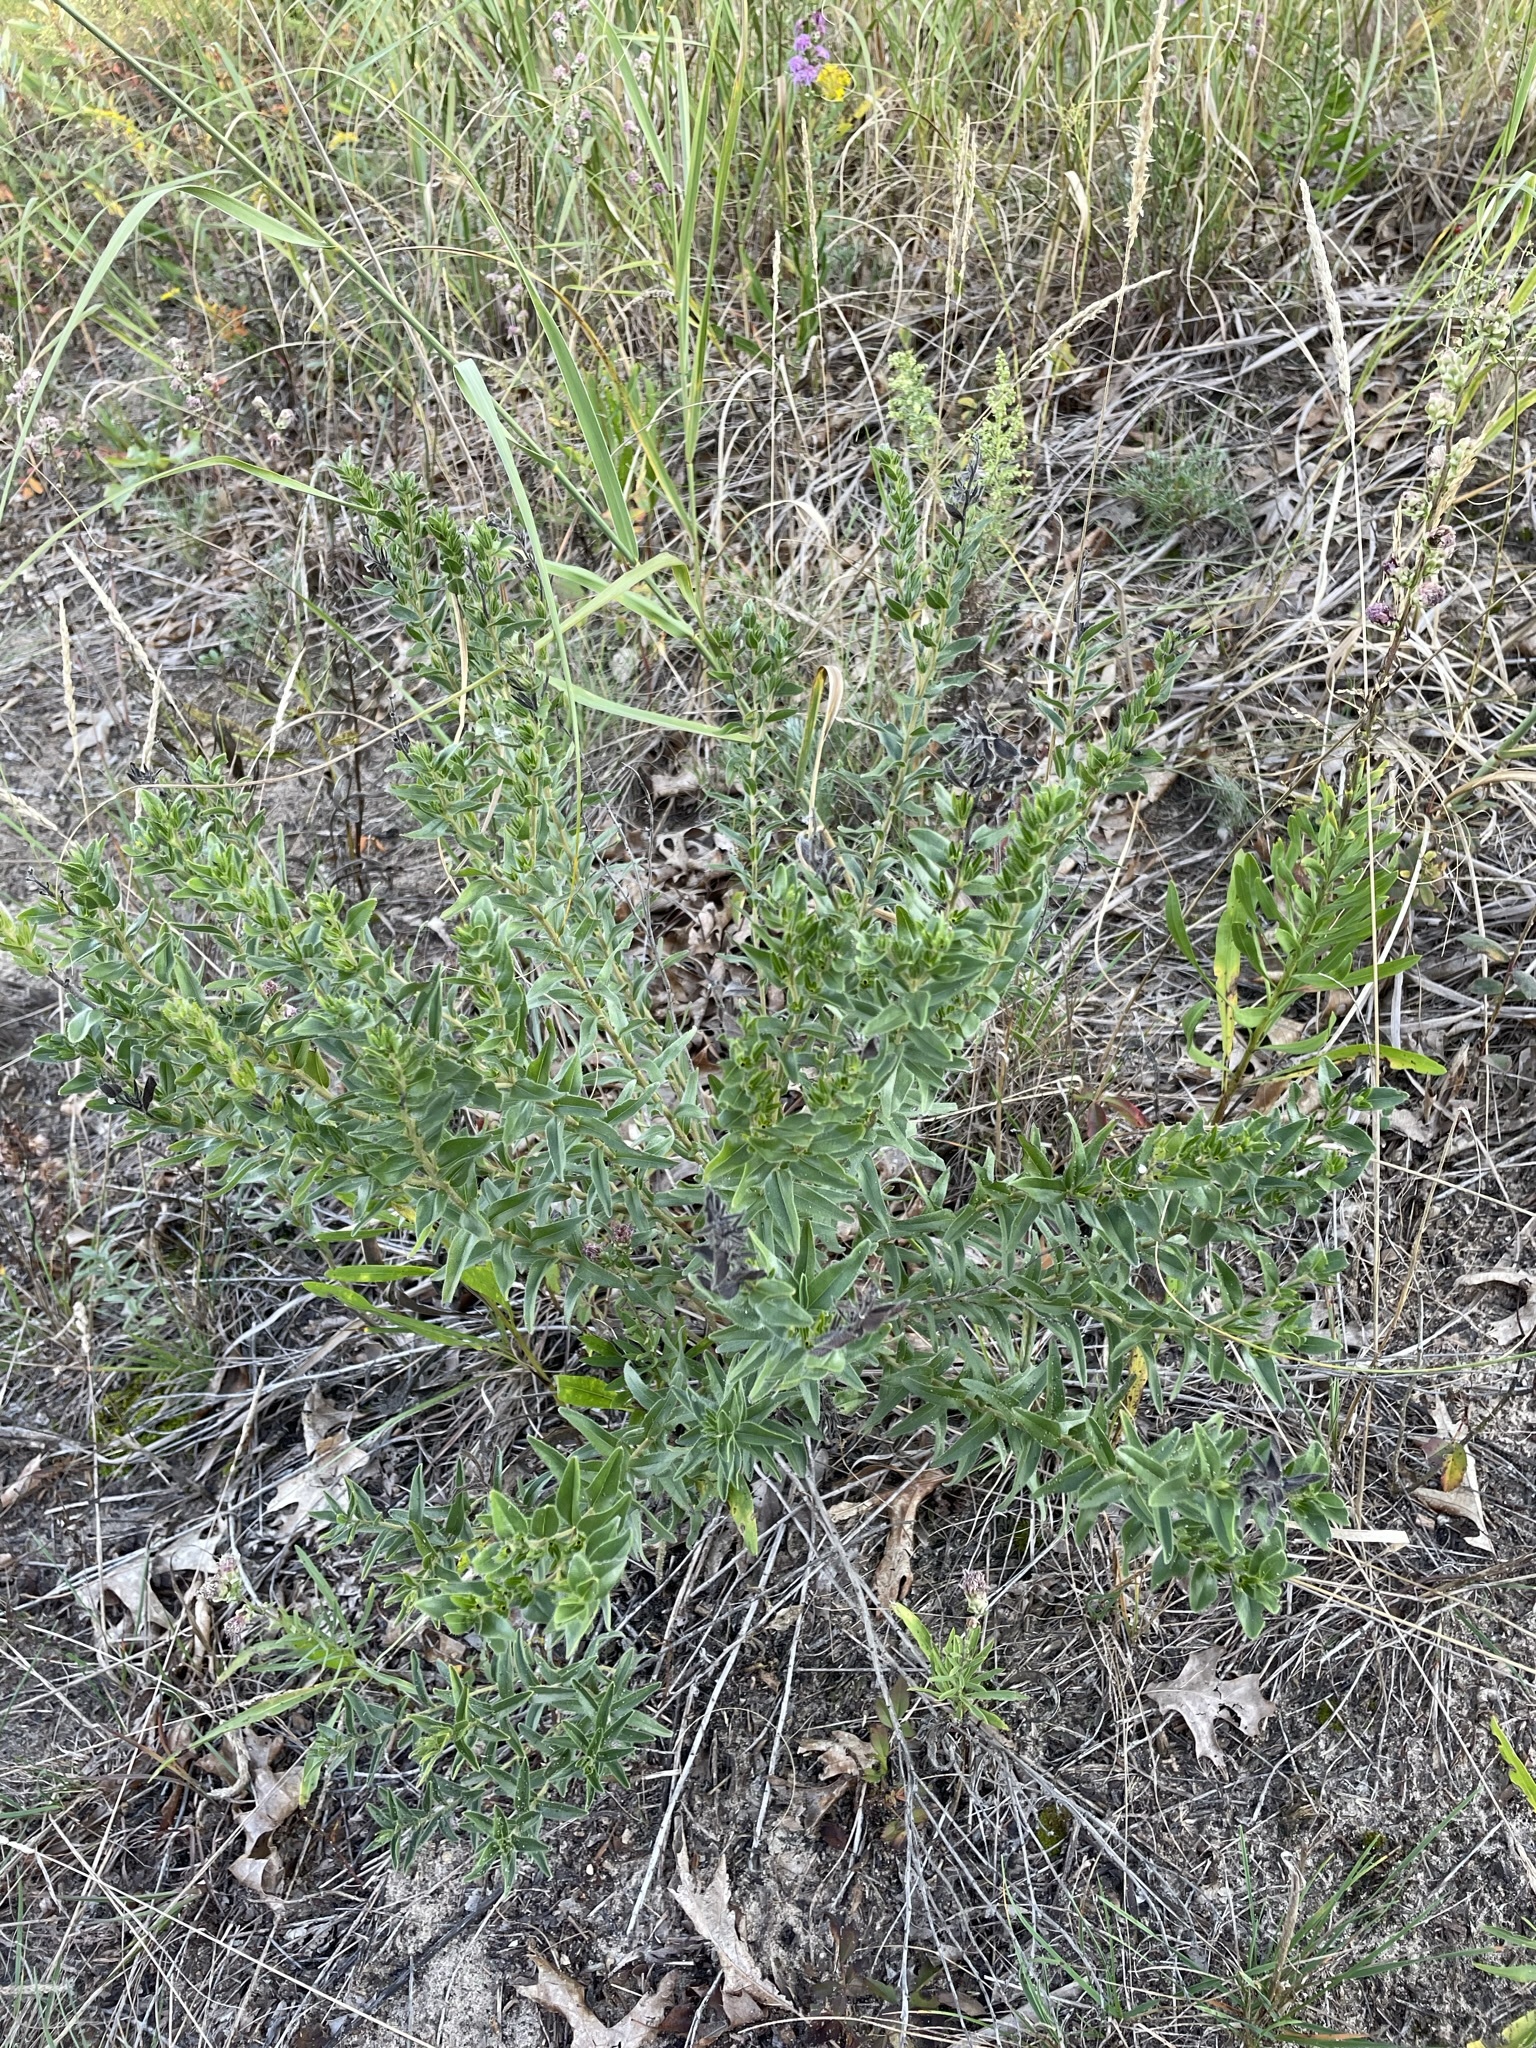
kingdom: Plantae
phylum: Tracheophyta
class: Magnoliopsida
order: Boraginales
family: Boraginaceae
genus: Lithospermum
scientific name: Lithospermum caroliniense
